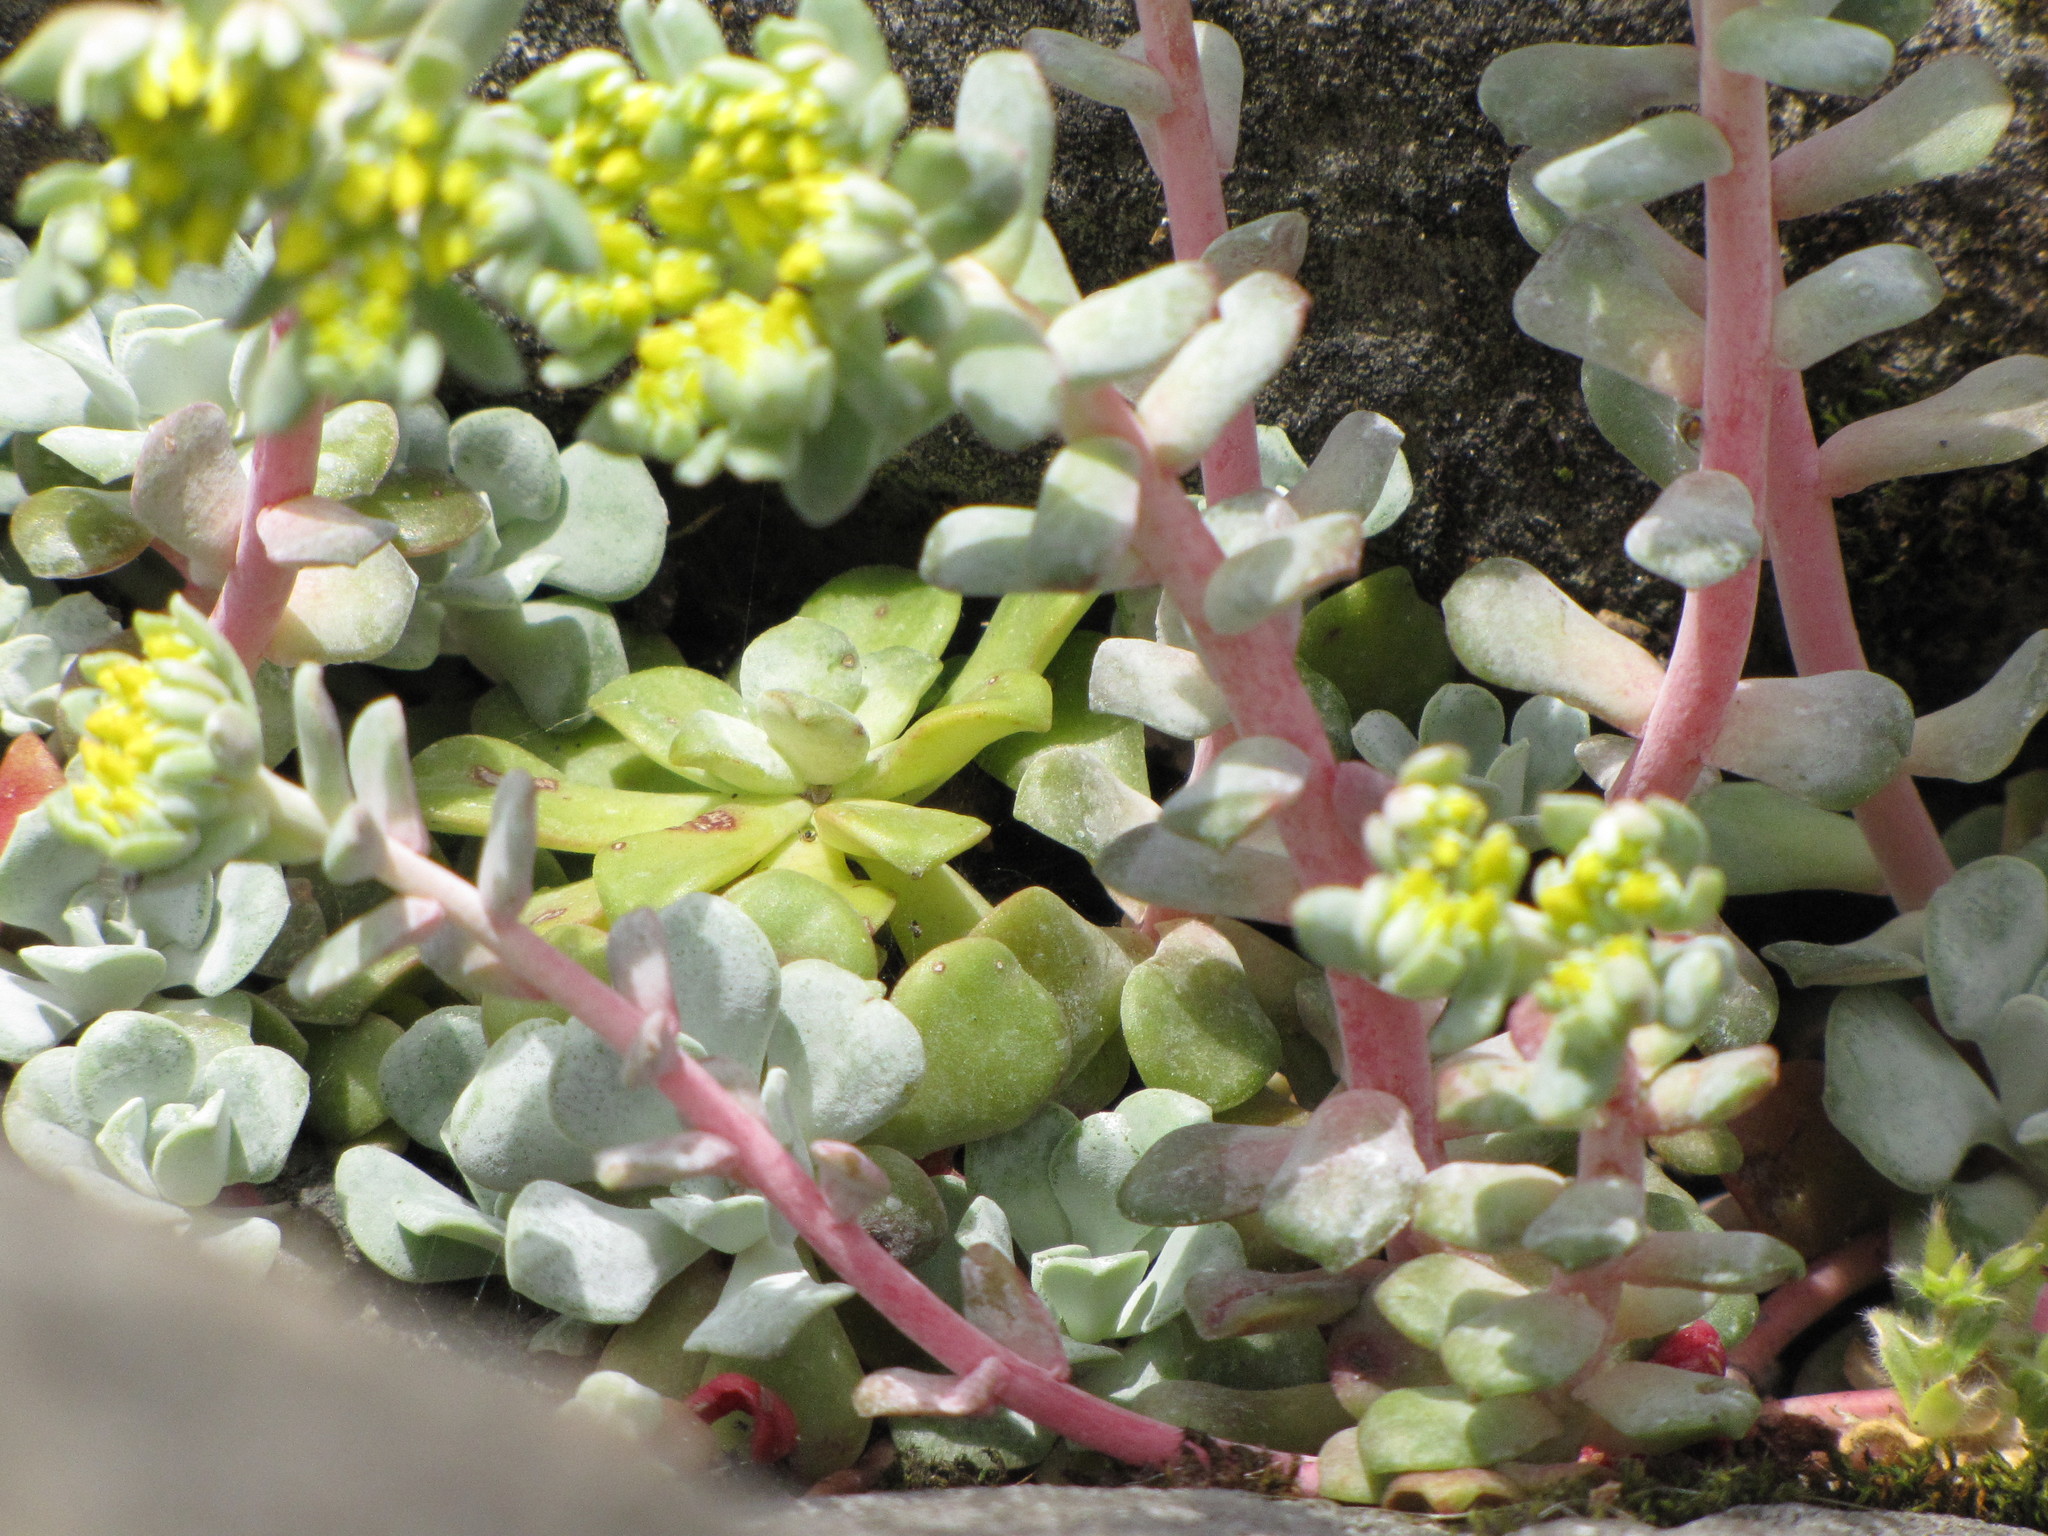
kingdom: Plantae
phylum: Tracheophyta
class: Magnoliopsida
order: Saxifragales
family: Crassulaceae
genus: Sedum
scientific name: Sedum spathulifolium
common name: Colorado stonecrop
